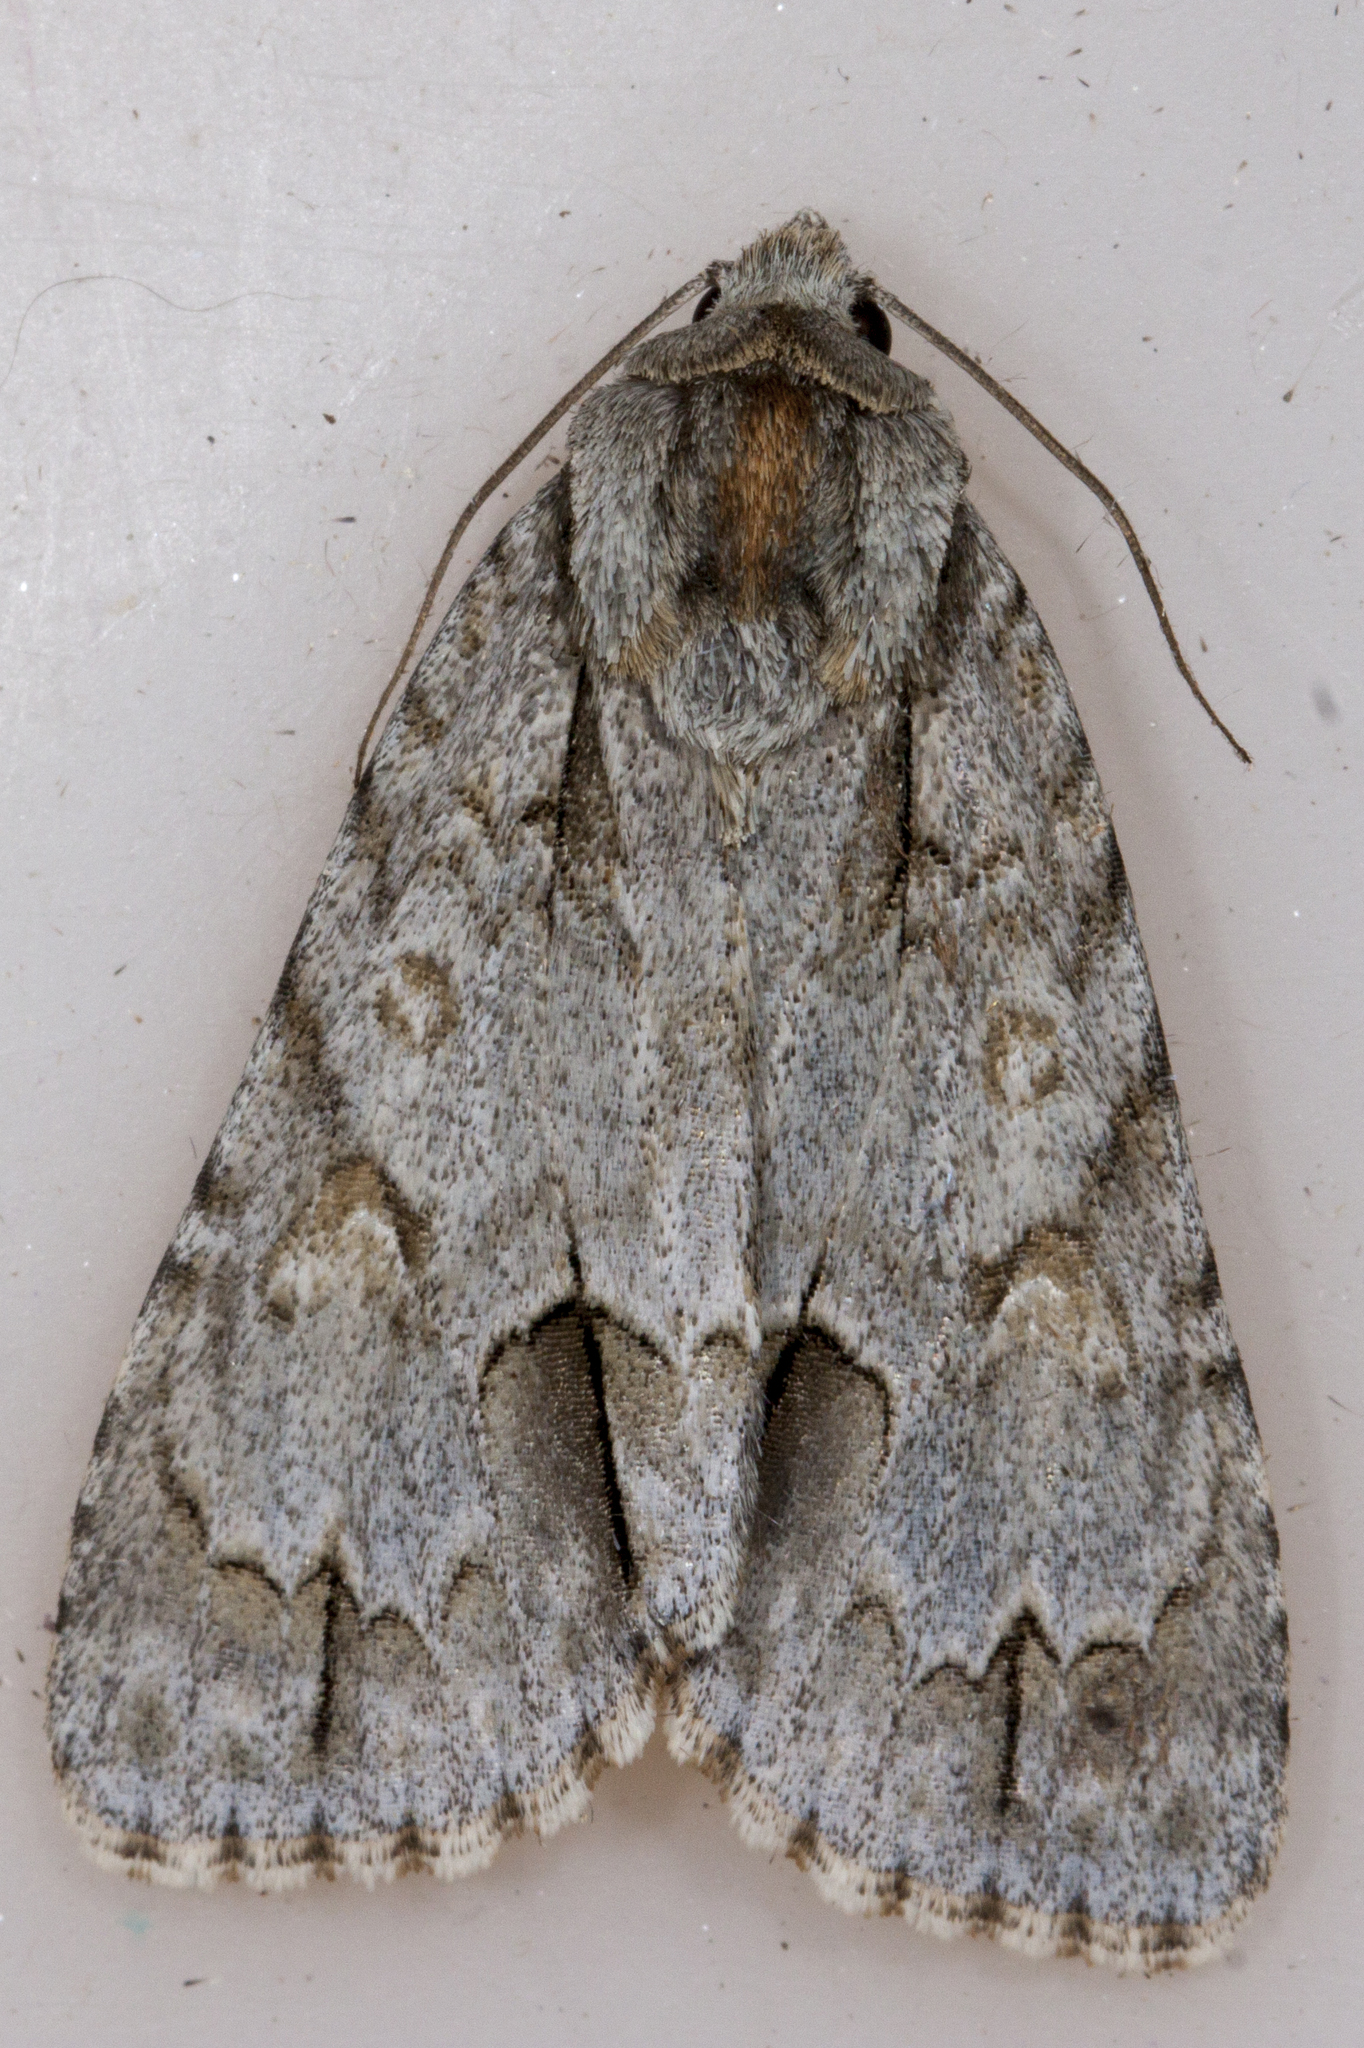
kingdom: Animalia
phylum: Arthropoda
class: Insecta
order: Lepidoptera
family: Noctuidae
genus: Acronicta
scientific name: Acronicta morula
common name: Ochre dagger
